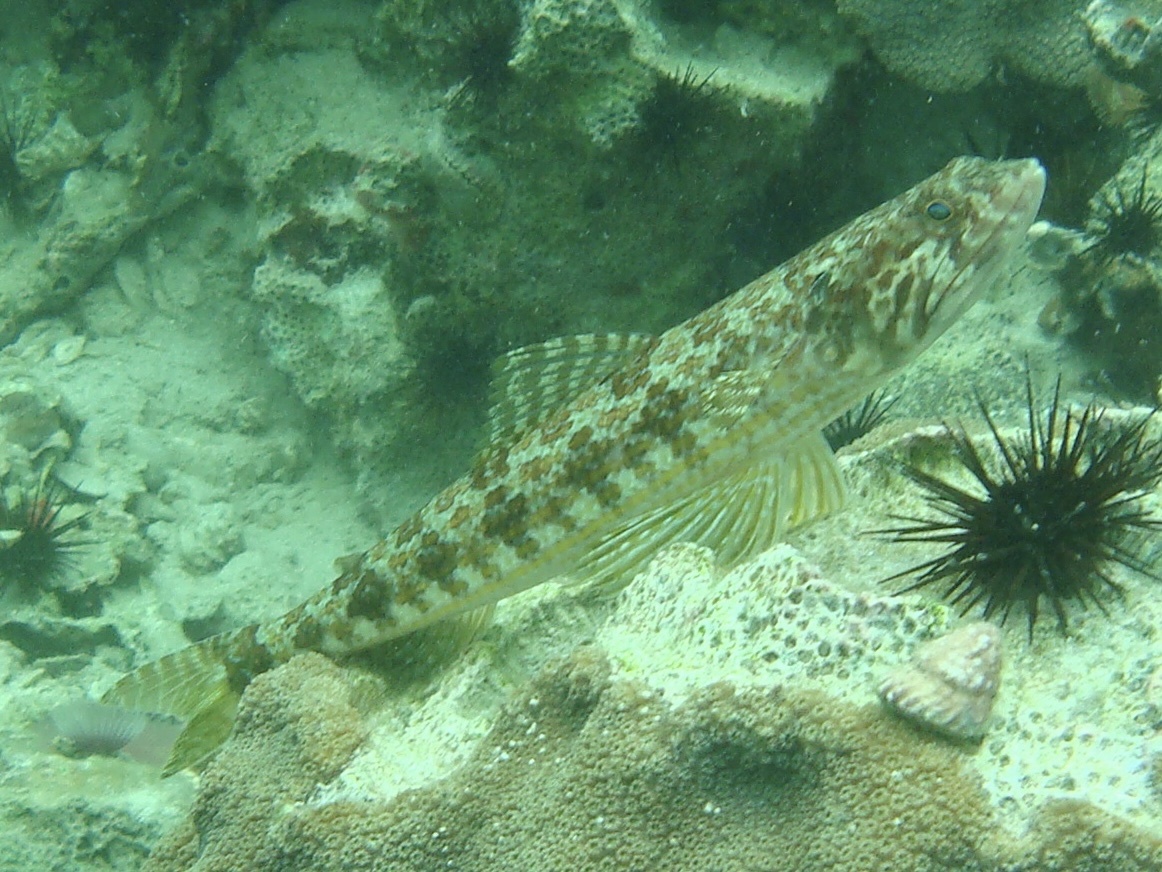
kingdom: Animalia
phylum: Chordata
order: Aulopiformes
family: Synodontidae
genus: Synodus
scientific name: Synodus intermedius
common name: Sand diver
